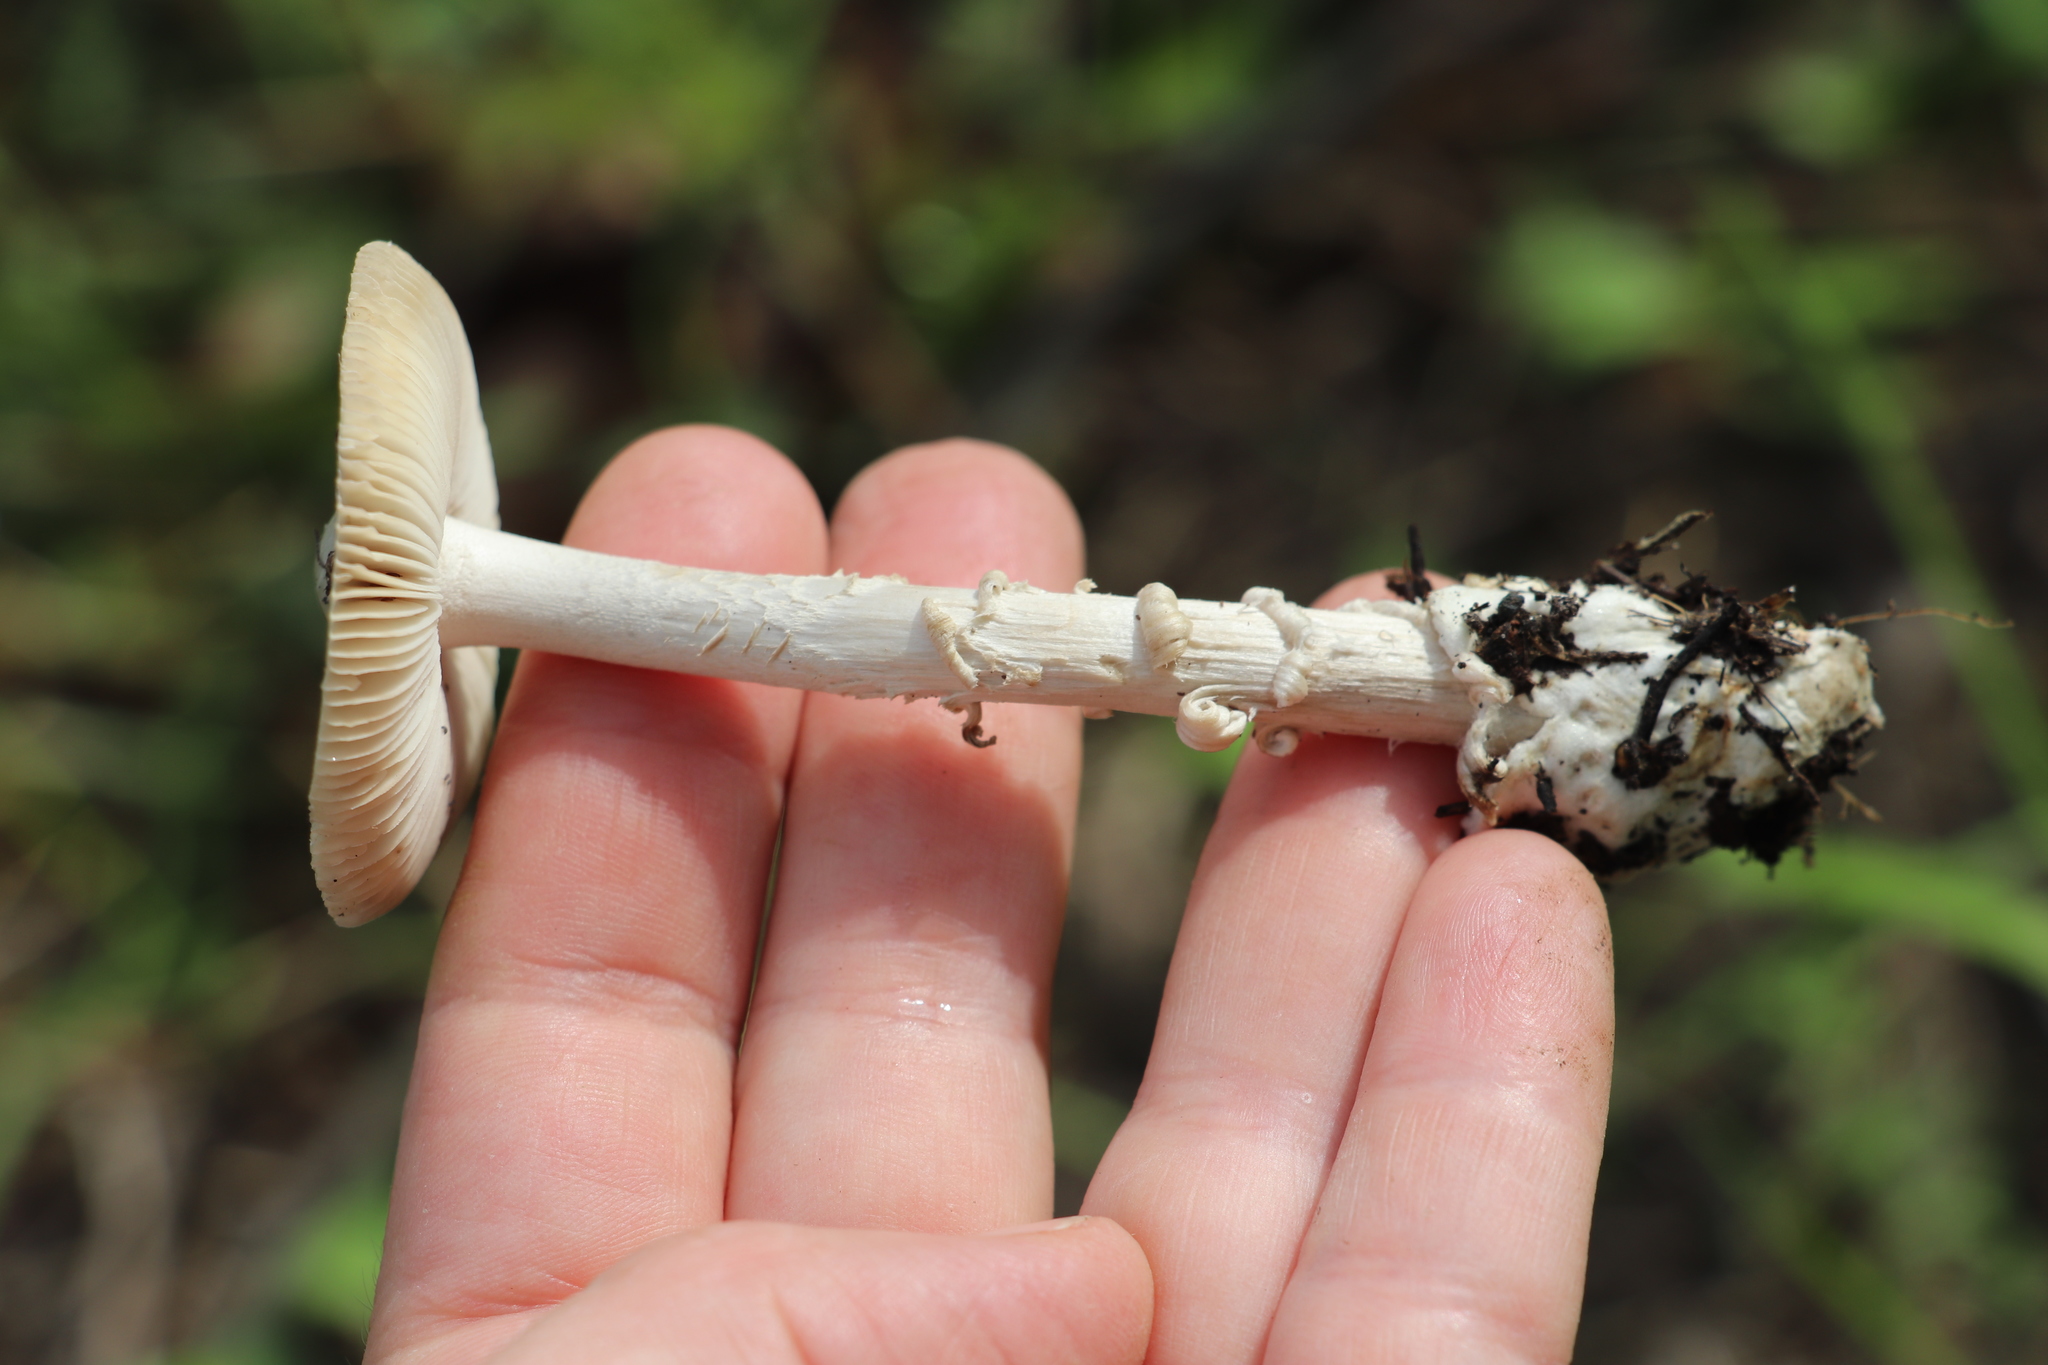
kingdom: Fungi
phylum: Basidiomycota
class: Agaricomycetes
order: Agaricales
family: Amanitaceae
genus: Amanita
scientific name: Amanita vaginata
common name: Grisette
